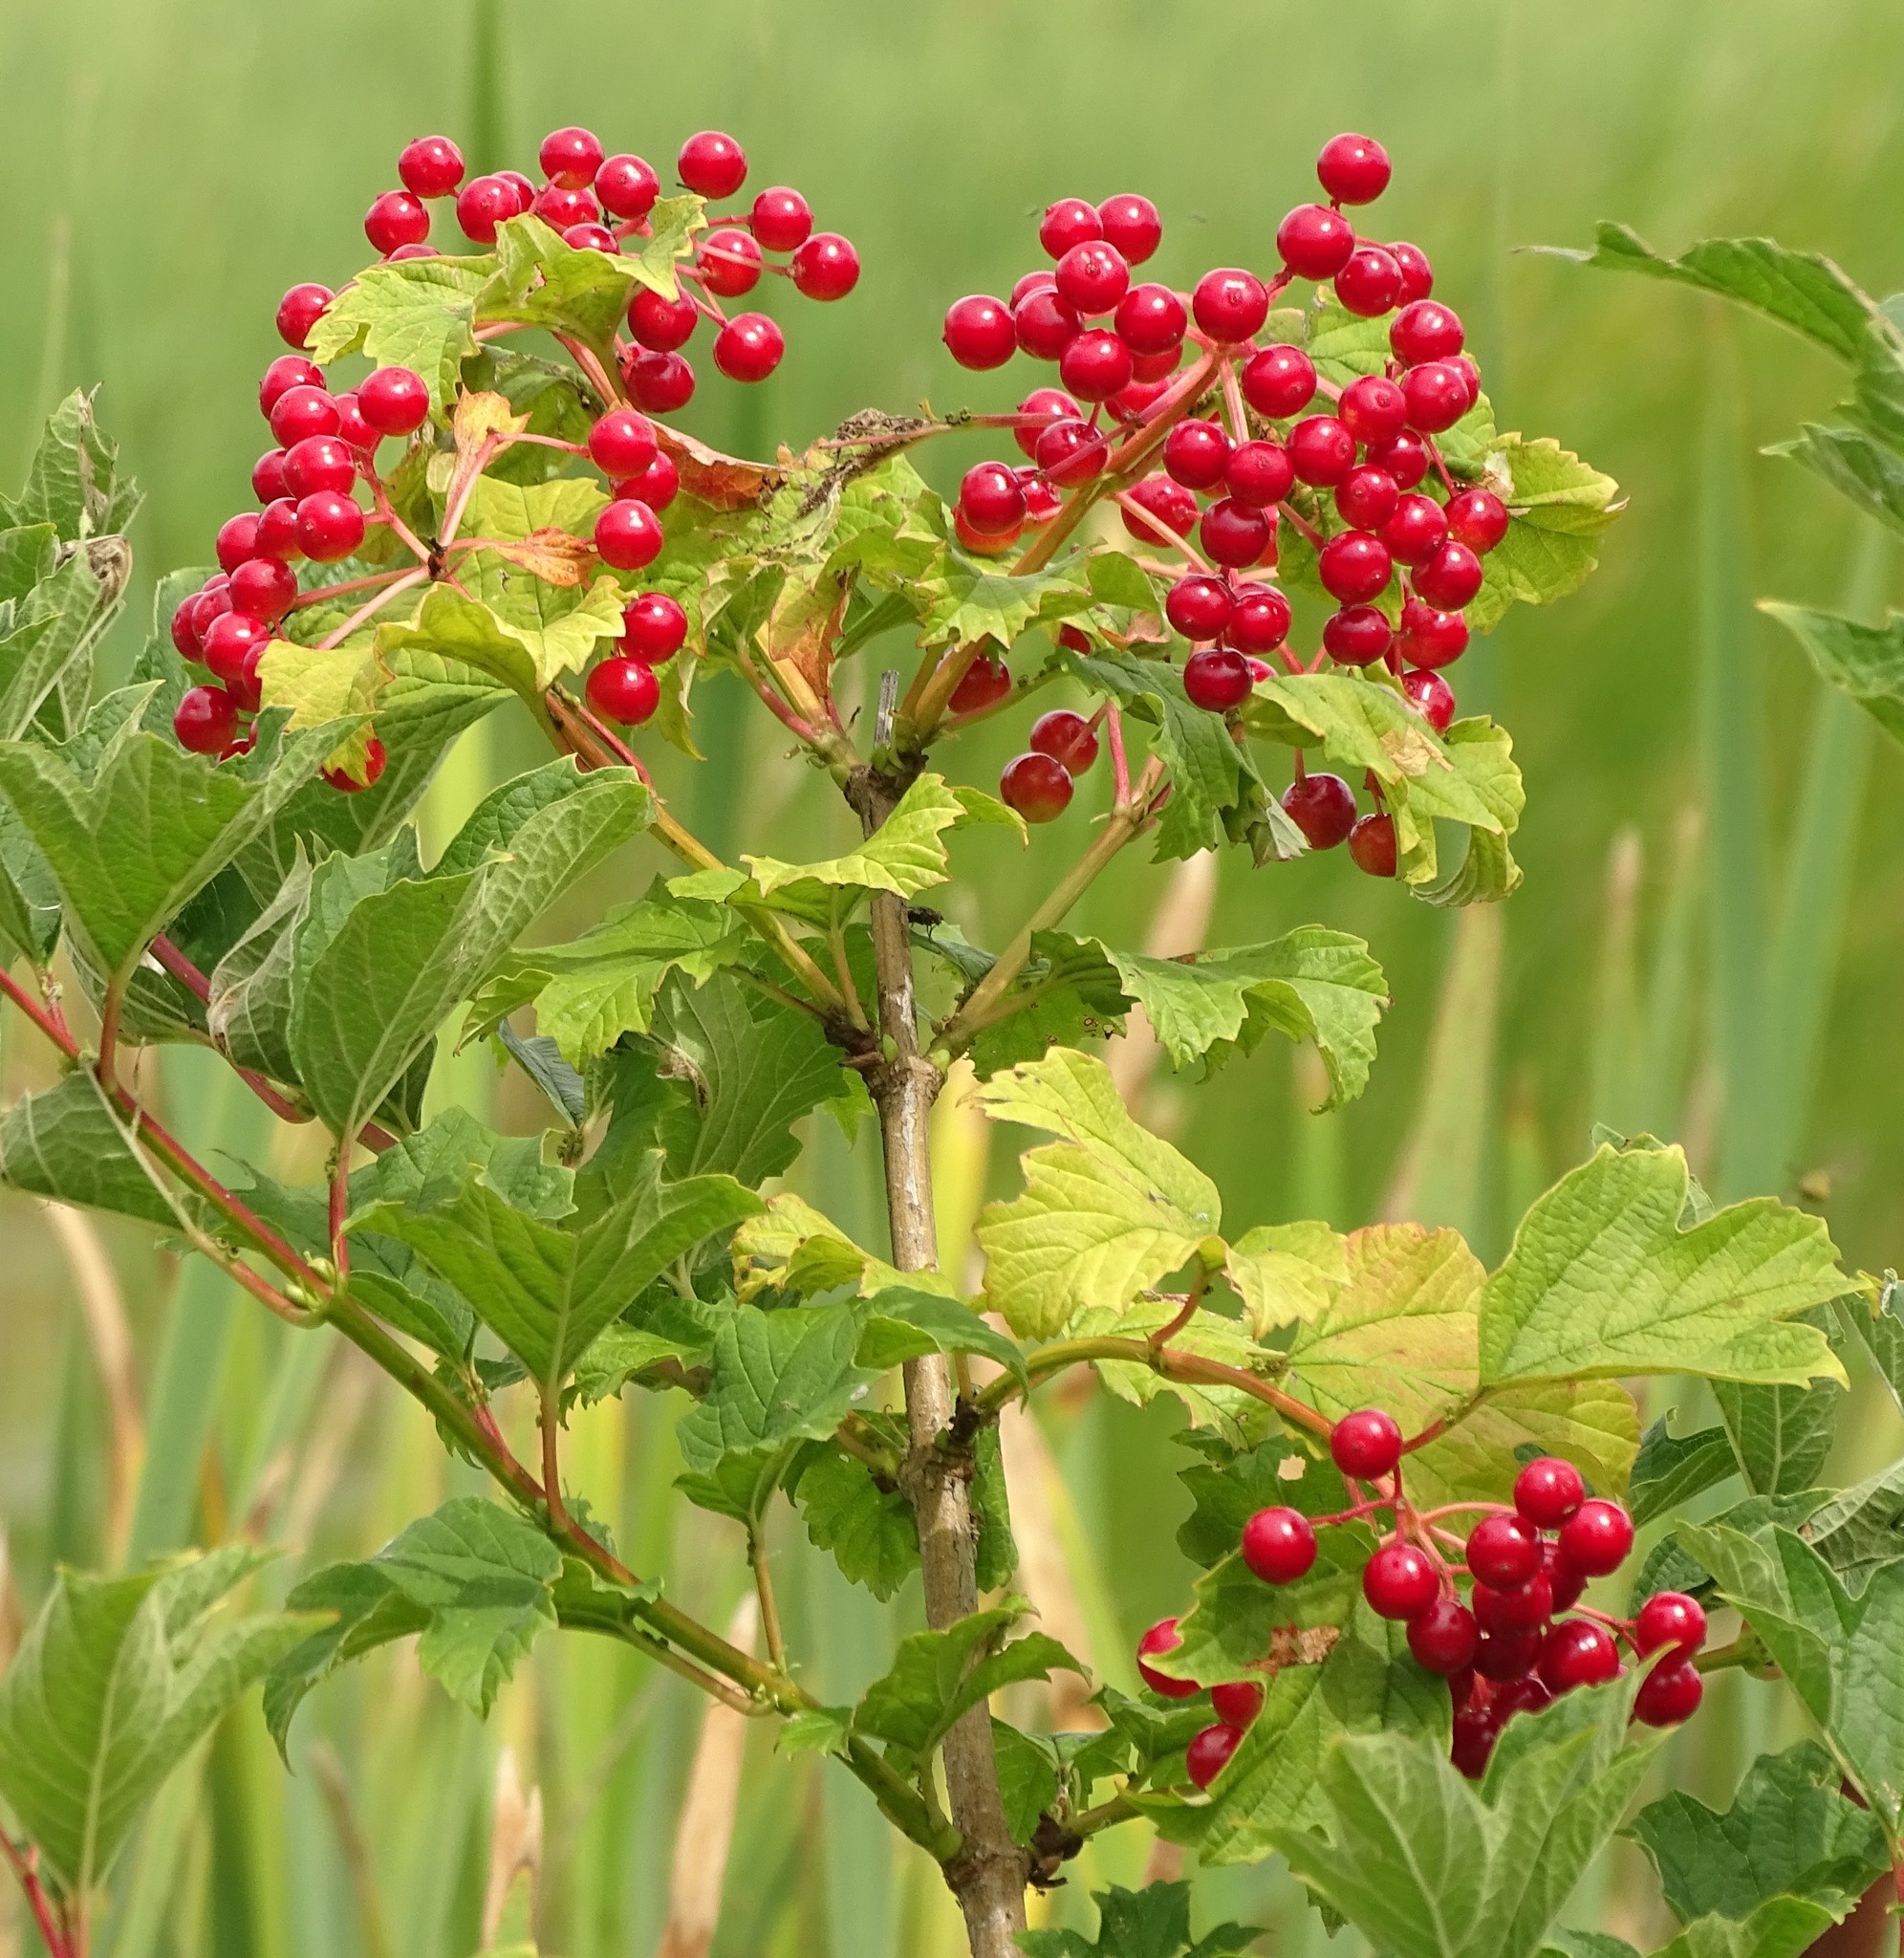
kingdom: Plantae
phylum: Tracheophyta
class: Magnoliopsida
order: Dipsacales
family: Viburnaceae
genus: Viburnum
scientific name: Viburnum opulus
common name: Guelder-rose
